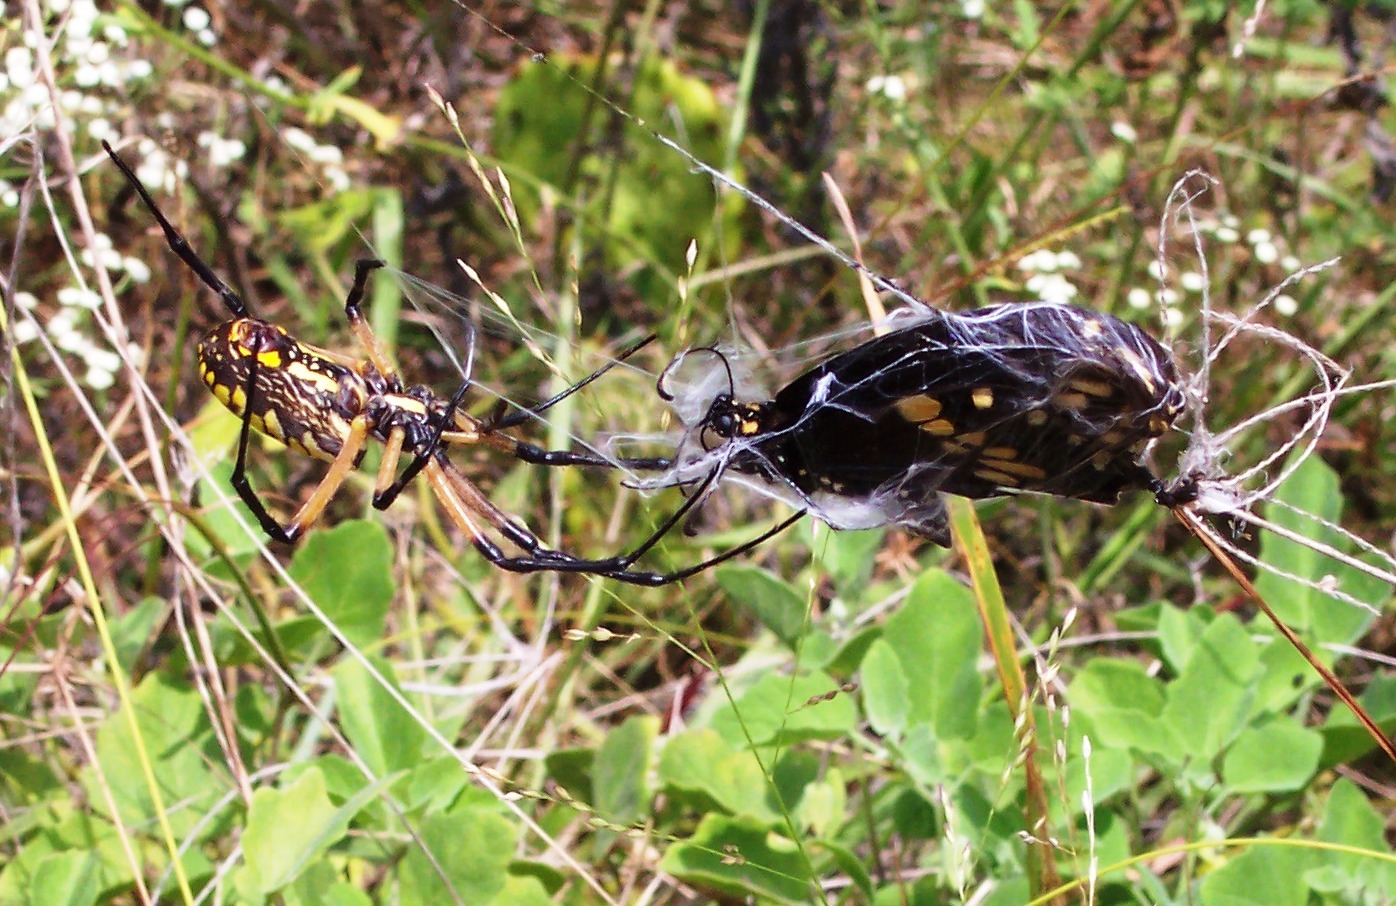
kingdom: Animalia
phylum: Arthropoda
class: Arachnida
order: Araneae
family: Araneidae
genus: Argiope
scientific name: Argiope aurantia
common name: Orb weavers
